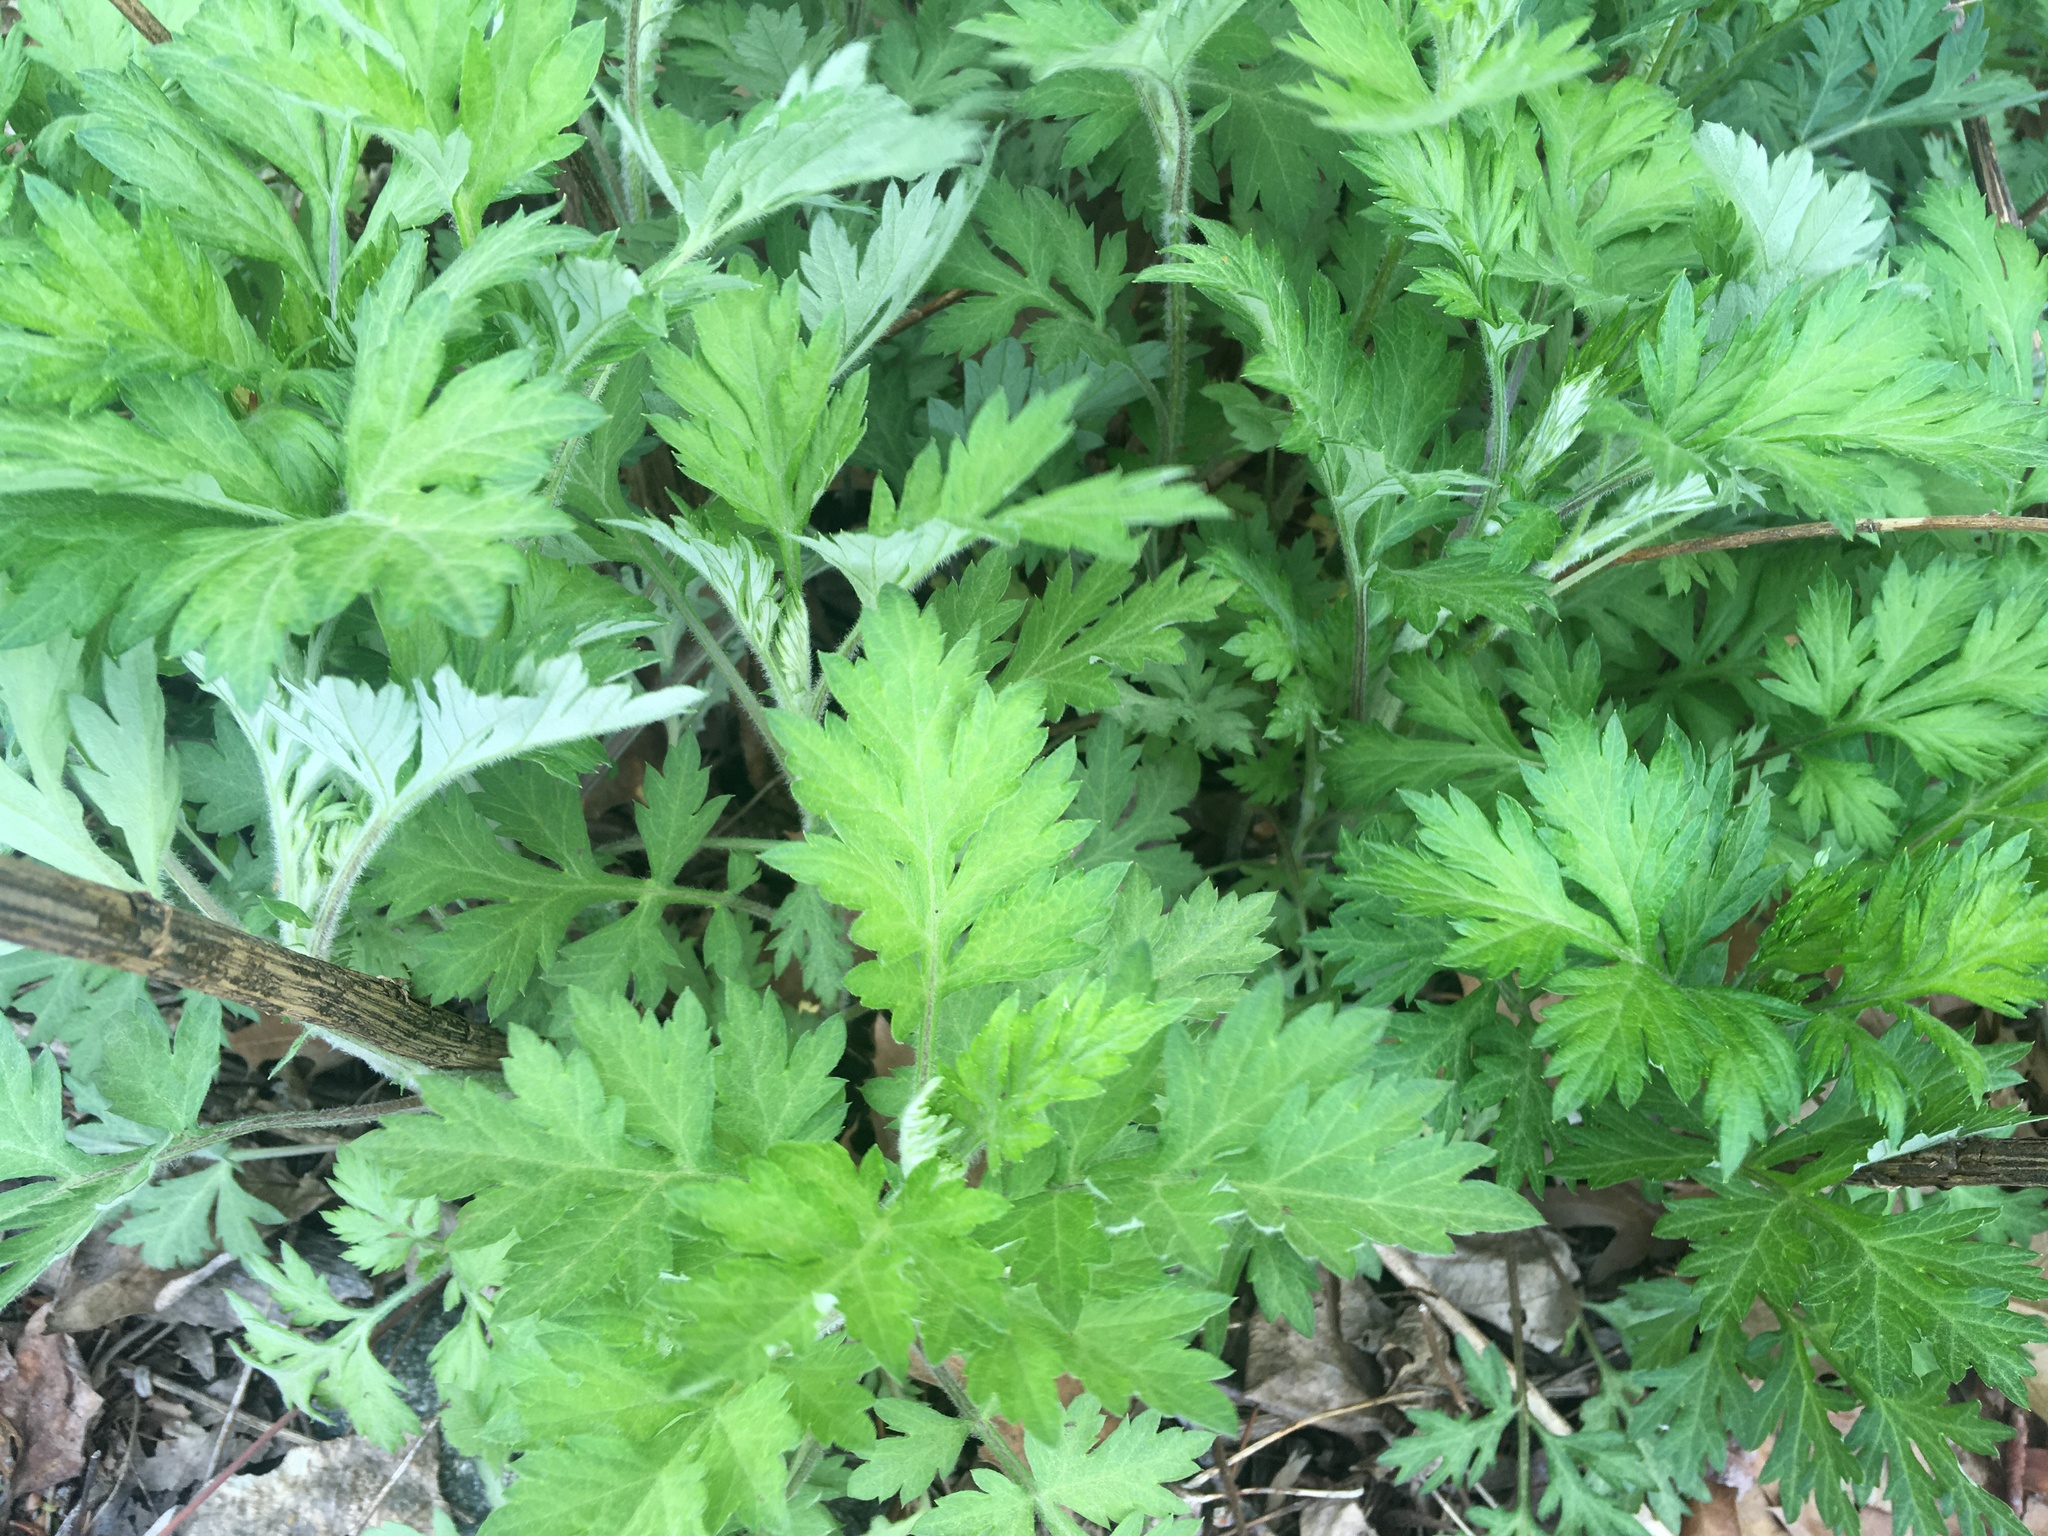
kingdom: Plantae
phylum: Tracheophyta
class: Magnoliopsida
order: Asterales
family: Asteraceae
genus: Artemisia
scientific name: Artemisia vulgaris
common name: Mugwort
